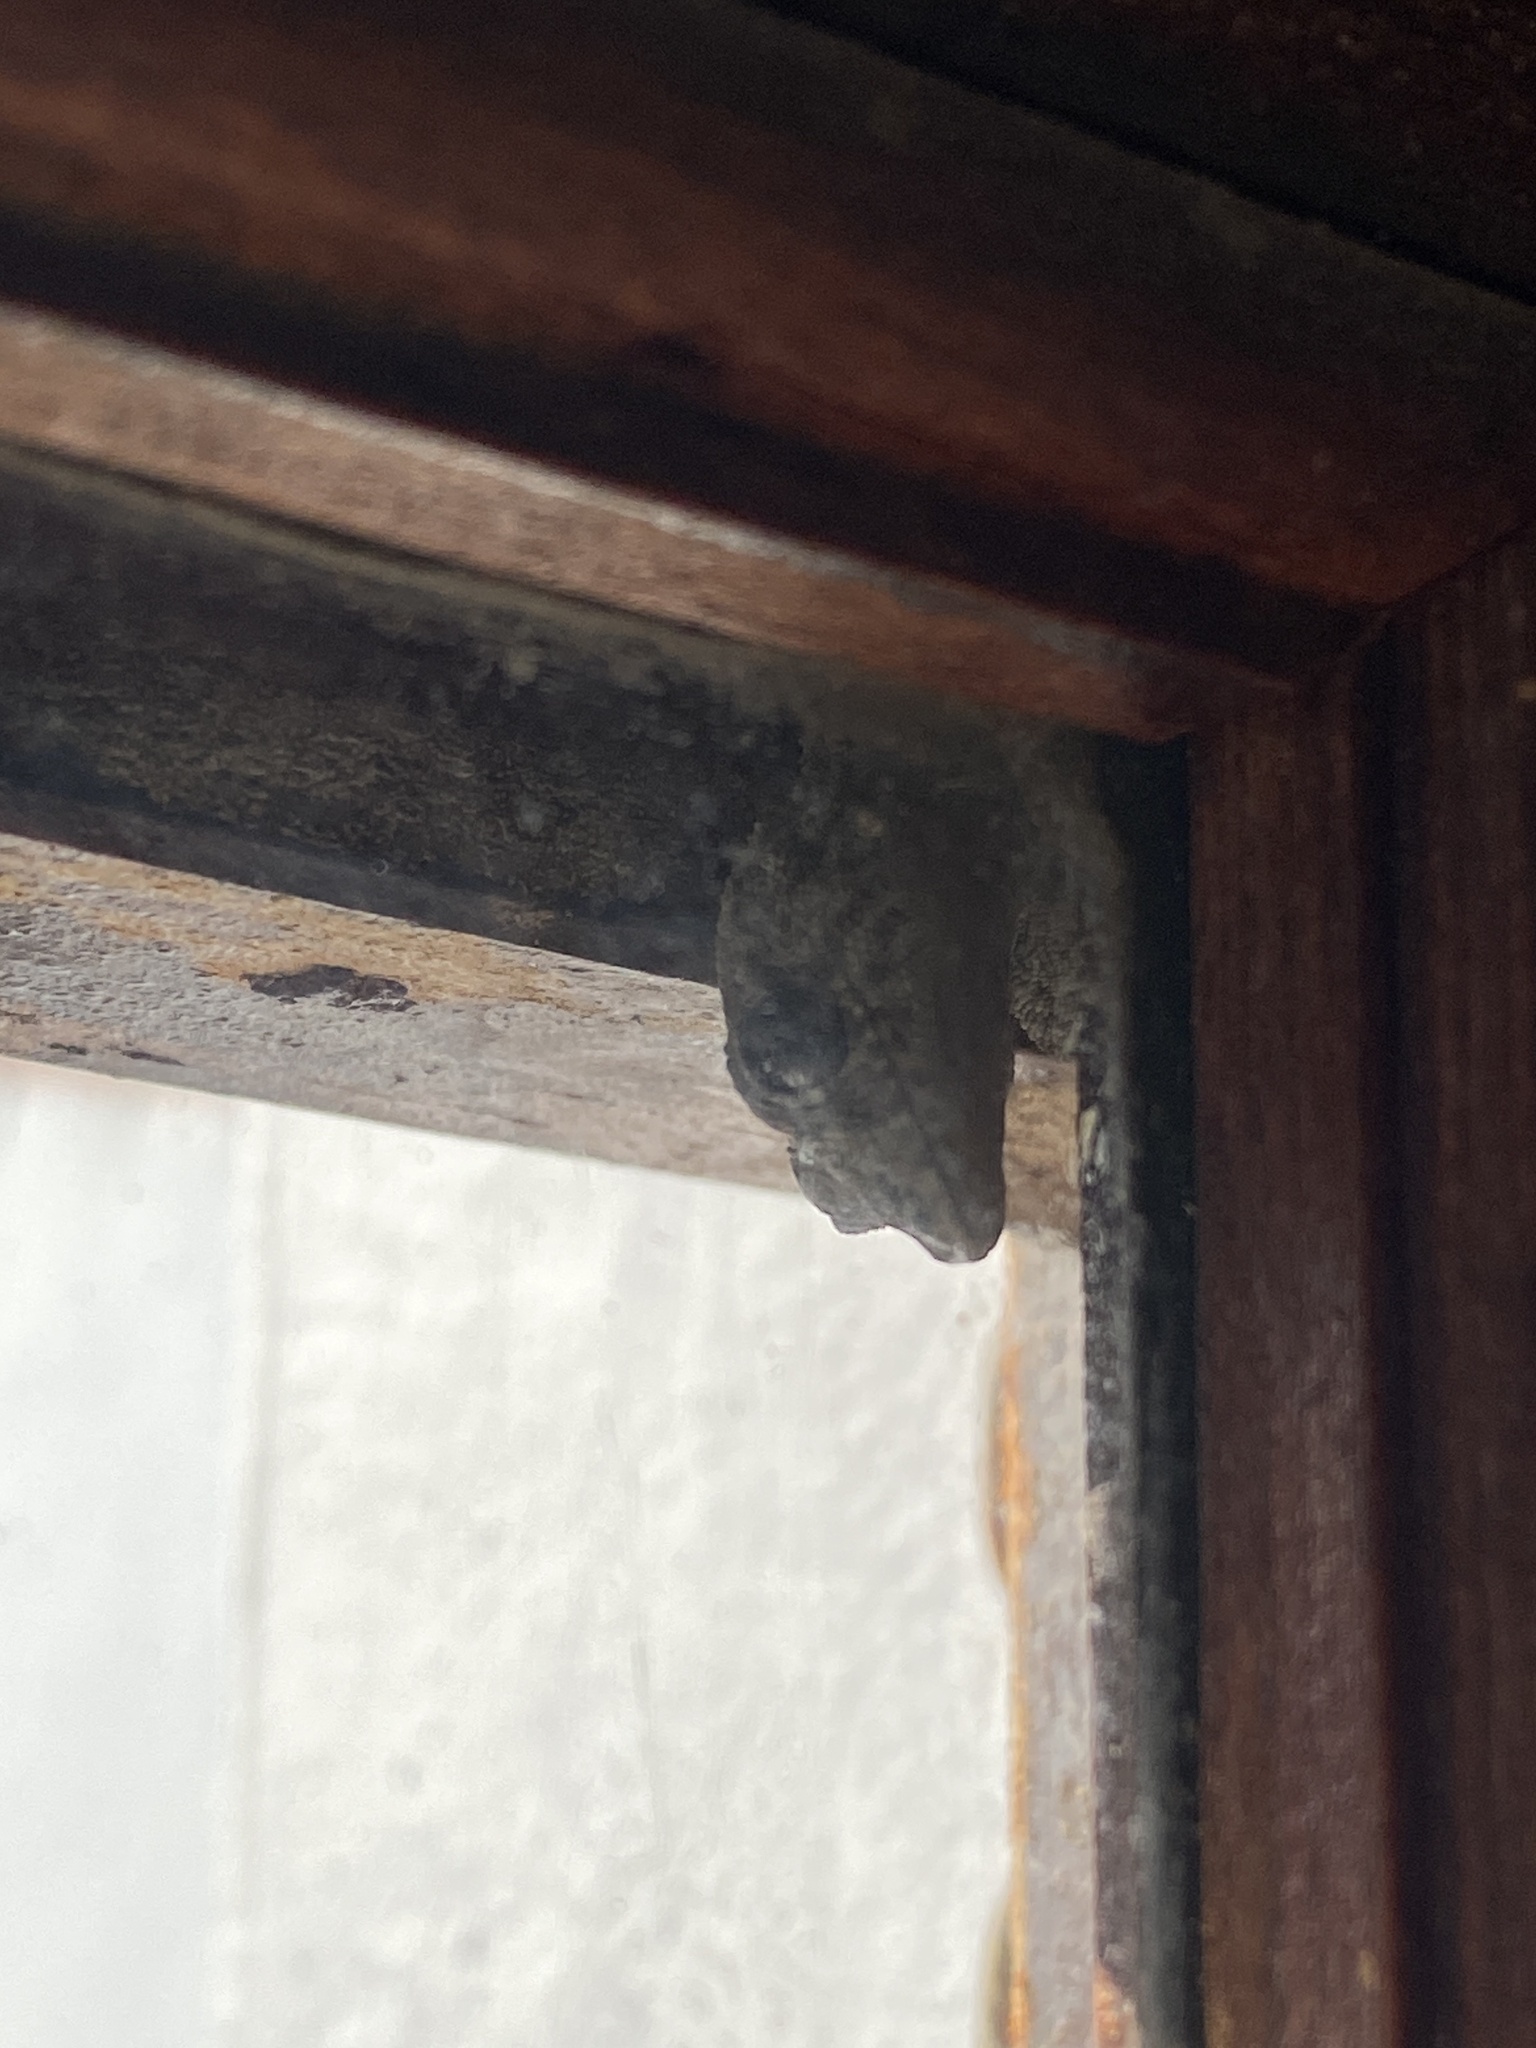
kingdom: Animalia
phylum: Chordata
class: Squamata
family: Phyllodactylidae
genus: Tarentola
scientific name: Tarentola delalandii
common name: Tenerife wall gecko
